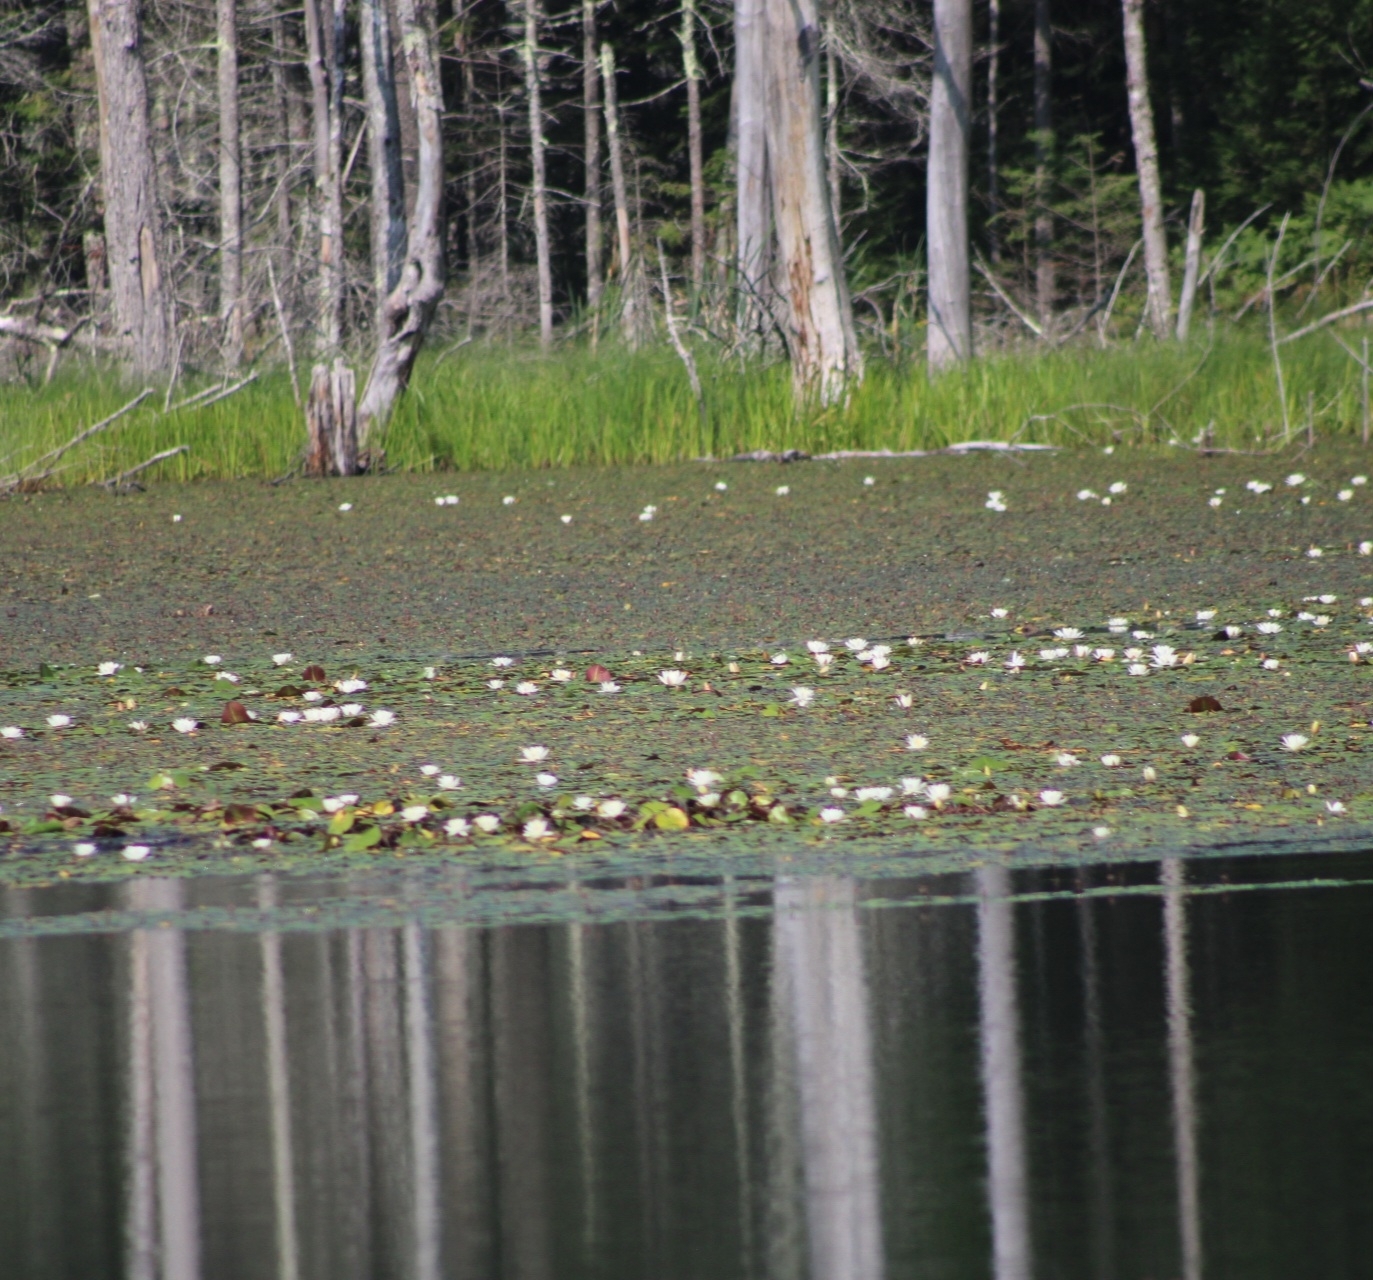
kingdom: Plantae
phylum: Tracheophyta
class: Magnoliopsida
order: Nymphaeales
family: Nymphaeaceae
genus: Nymphaea
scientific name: Nymphaea odorata
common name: Fragrant water-lily
